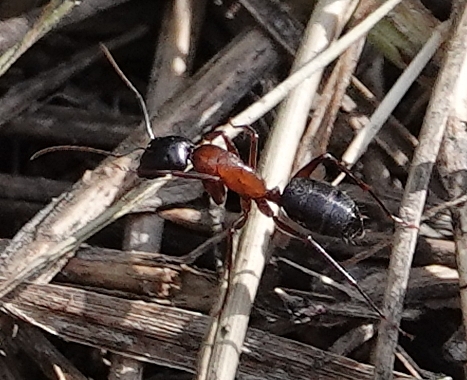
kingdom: Animalia
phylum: Arthropoda
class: Insecta
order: Hymenoptera
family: Formicidae
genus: Camponotus
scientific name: Camponotus vicinus
